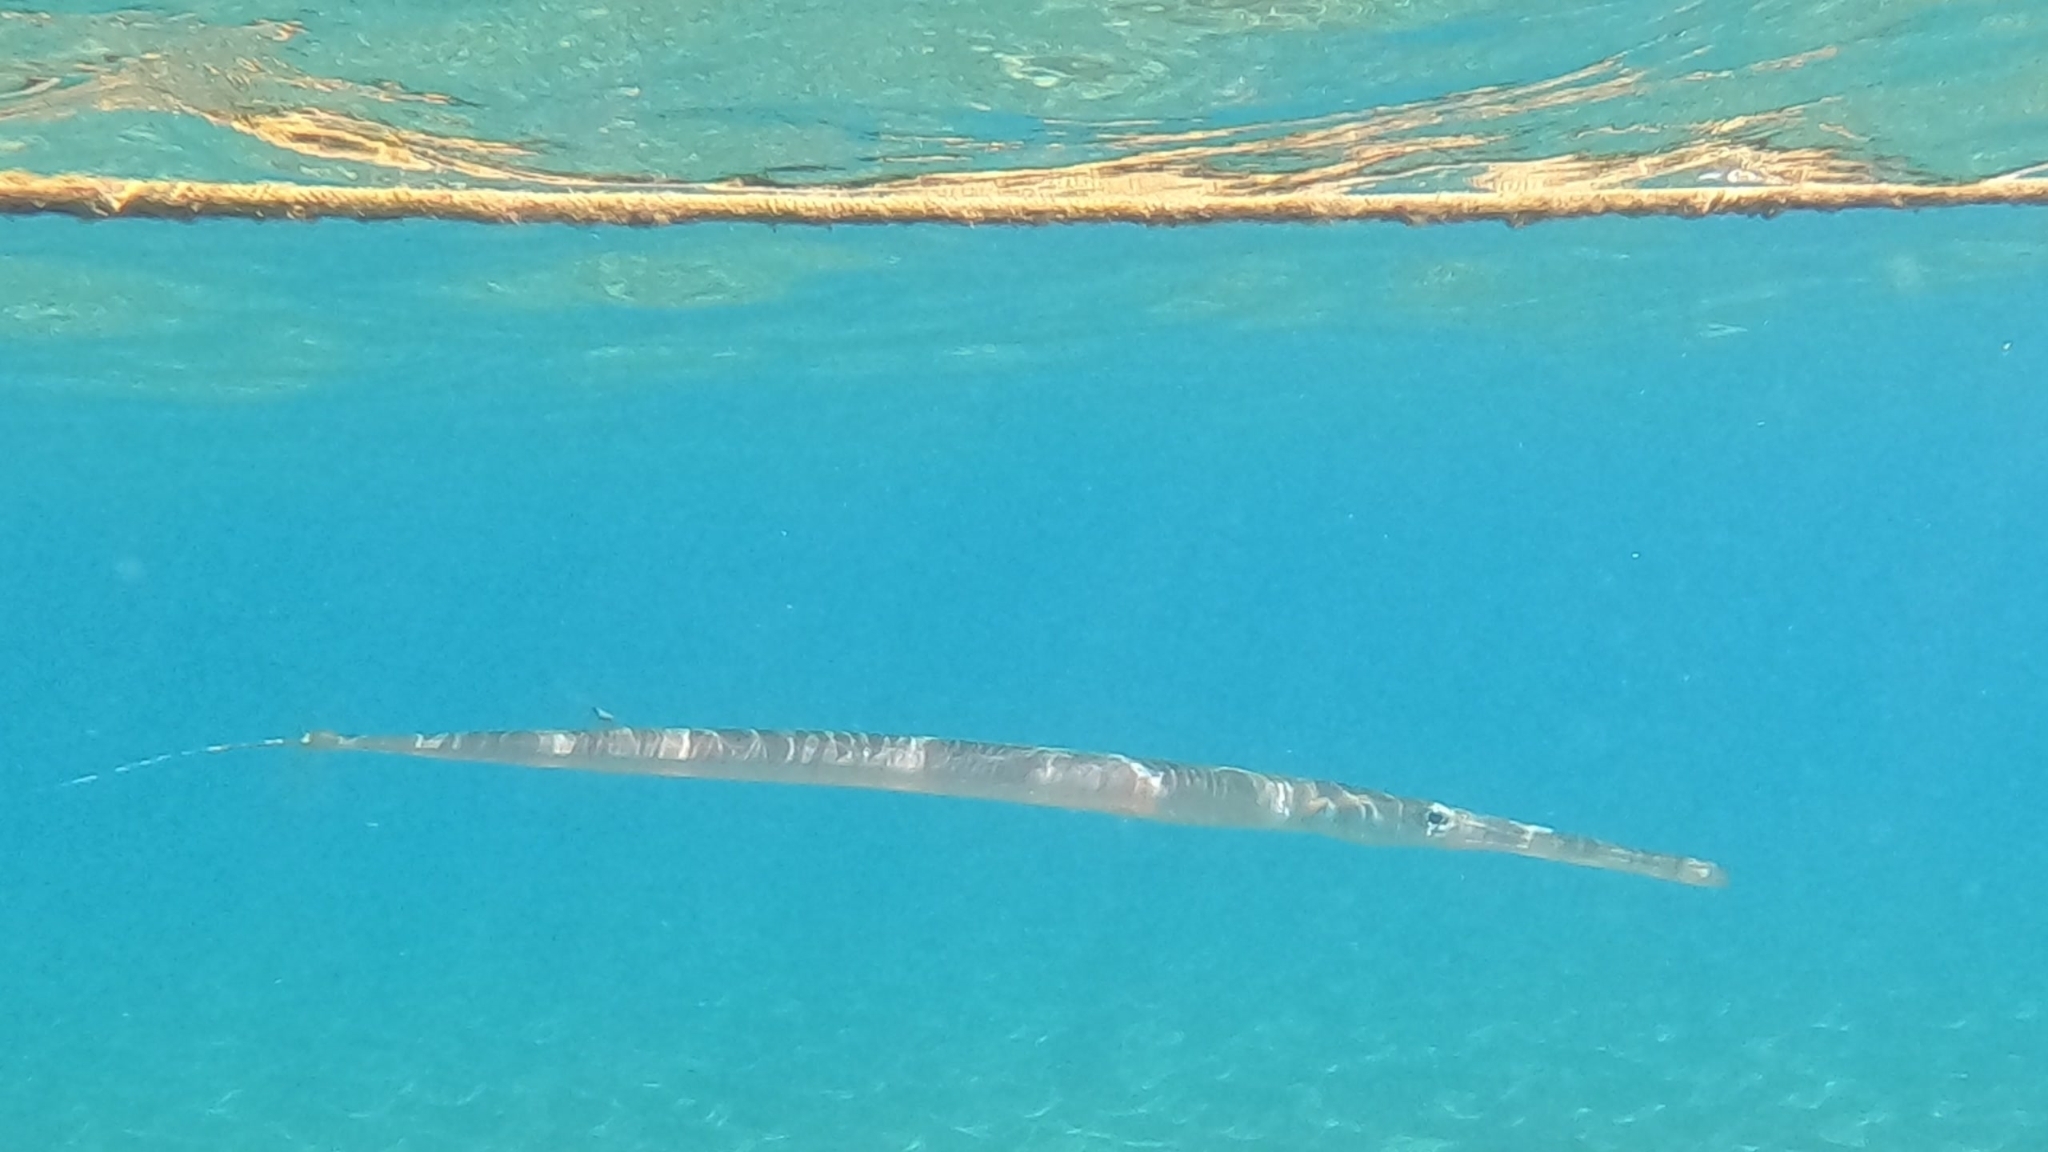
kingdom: Animalia
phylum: Chordata
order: Syngnathiformes
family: Fistulariidae
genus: Fistularia
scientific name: Fistularia commersonii
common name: Bluespotted cornetfish
